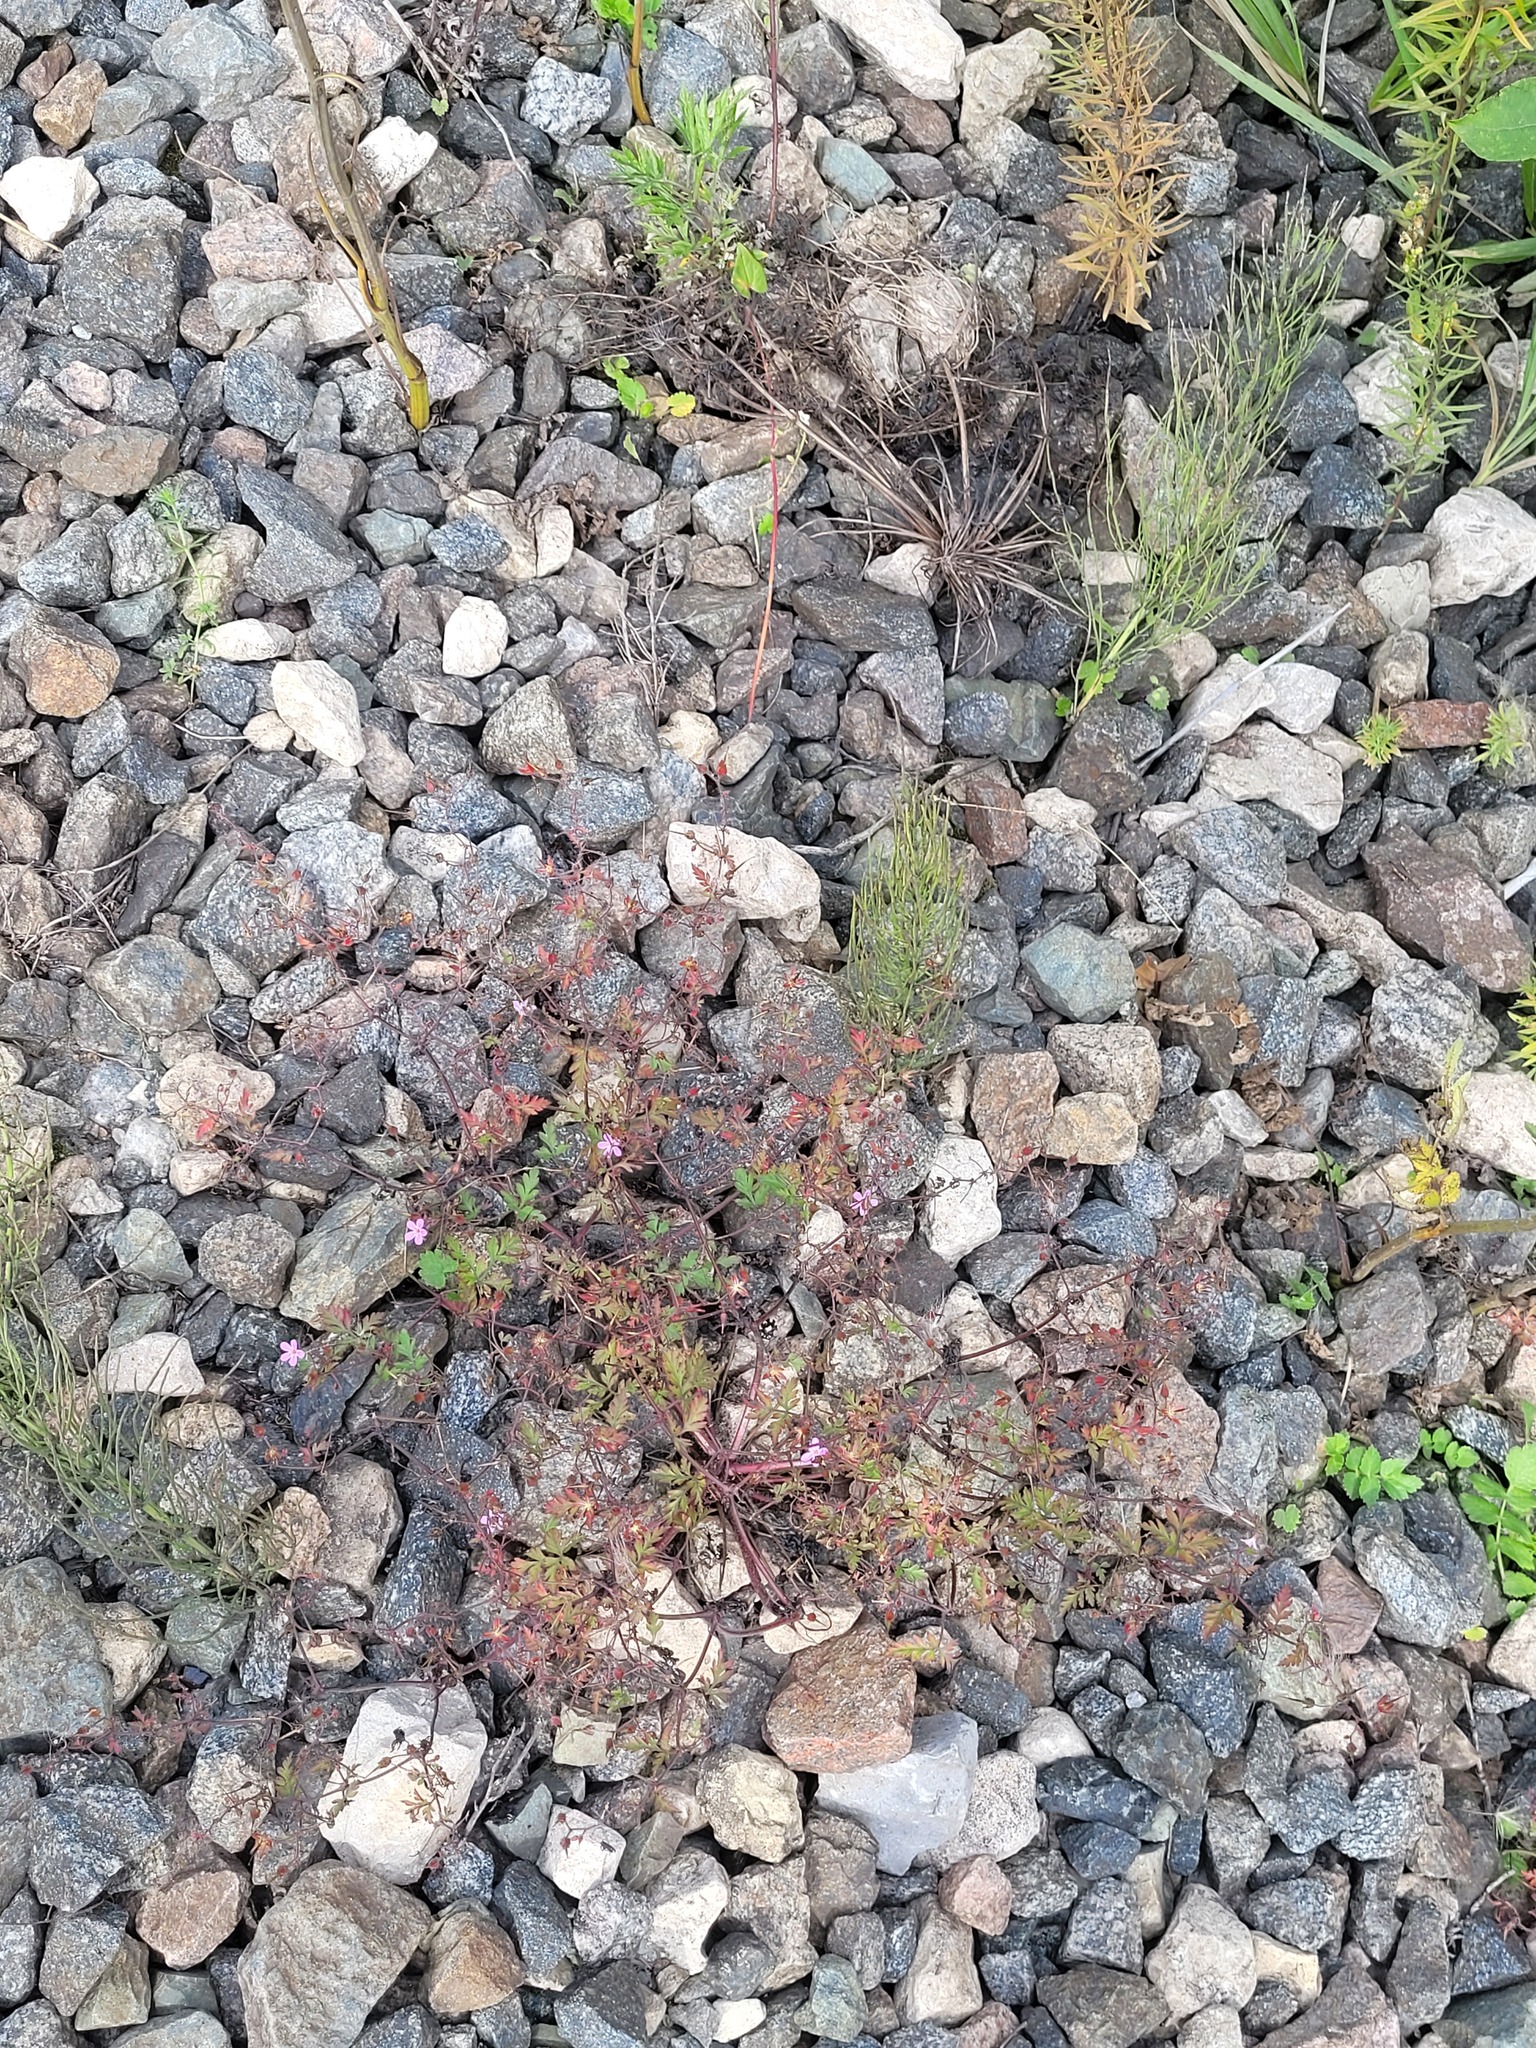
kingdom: Plantae
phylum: Tracheophyta
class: Magnoliopsida
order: Geraniales
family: Geraniaceae
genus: Geranium
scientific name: Geranium robertianum
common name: Herb-robert
